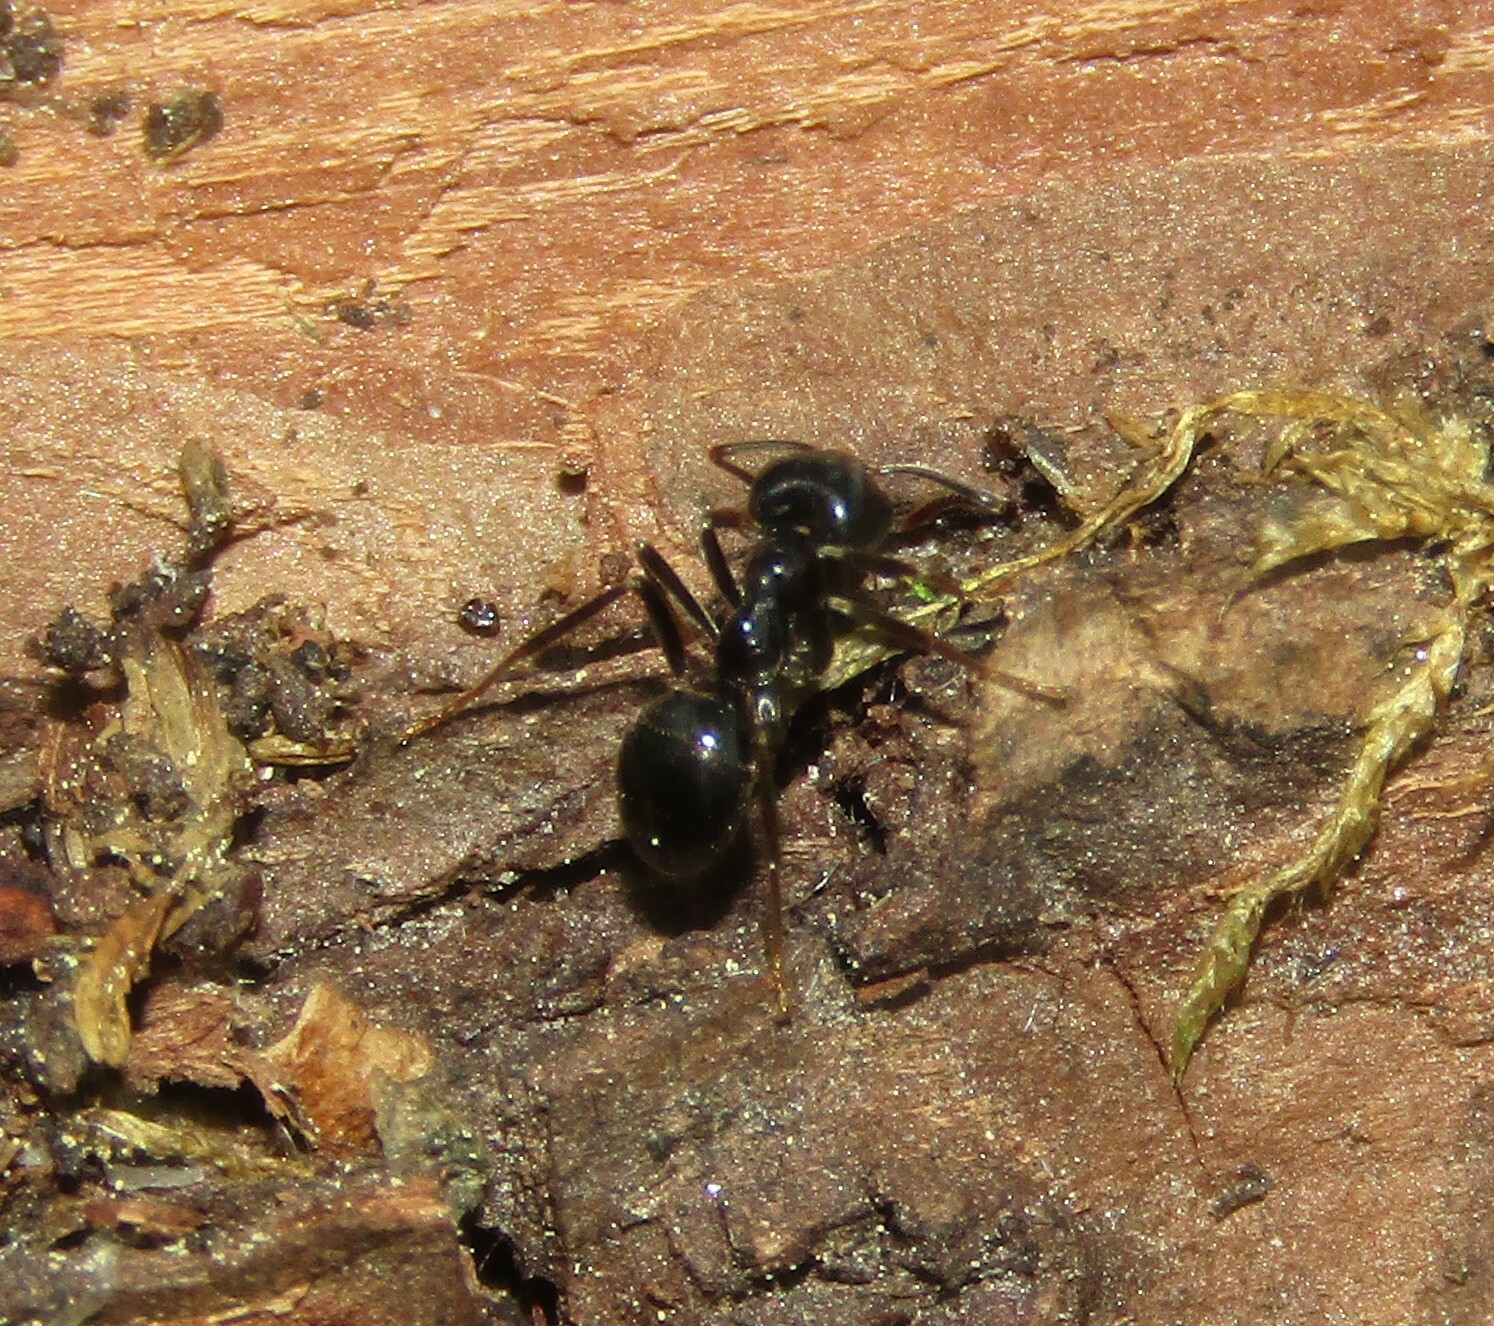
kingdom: Animalia
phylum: Arthropoda
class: Insecta
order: Hymenoptera
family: Formicidae
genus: Lasius
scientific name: Lasius fuliginosus
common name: Jet ant
